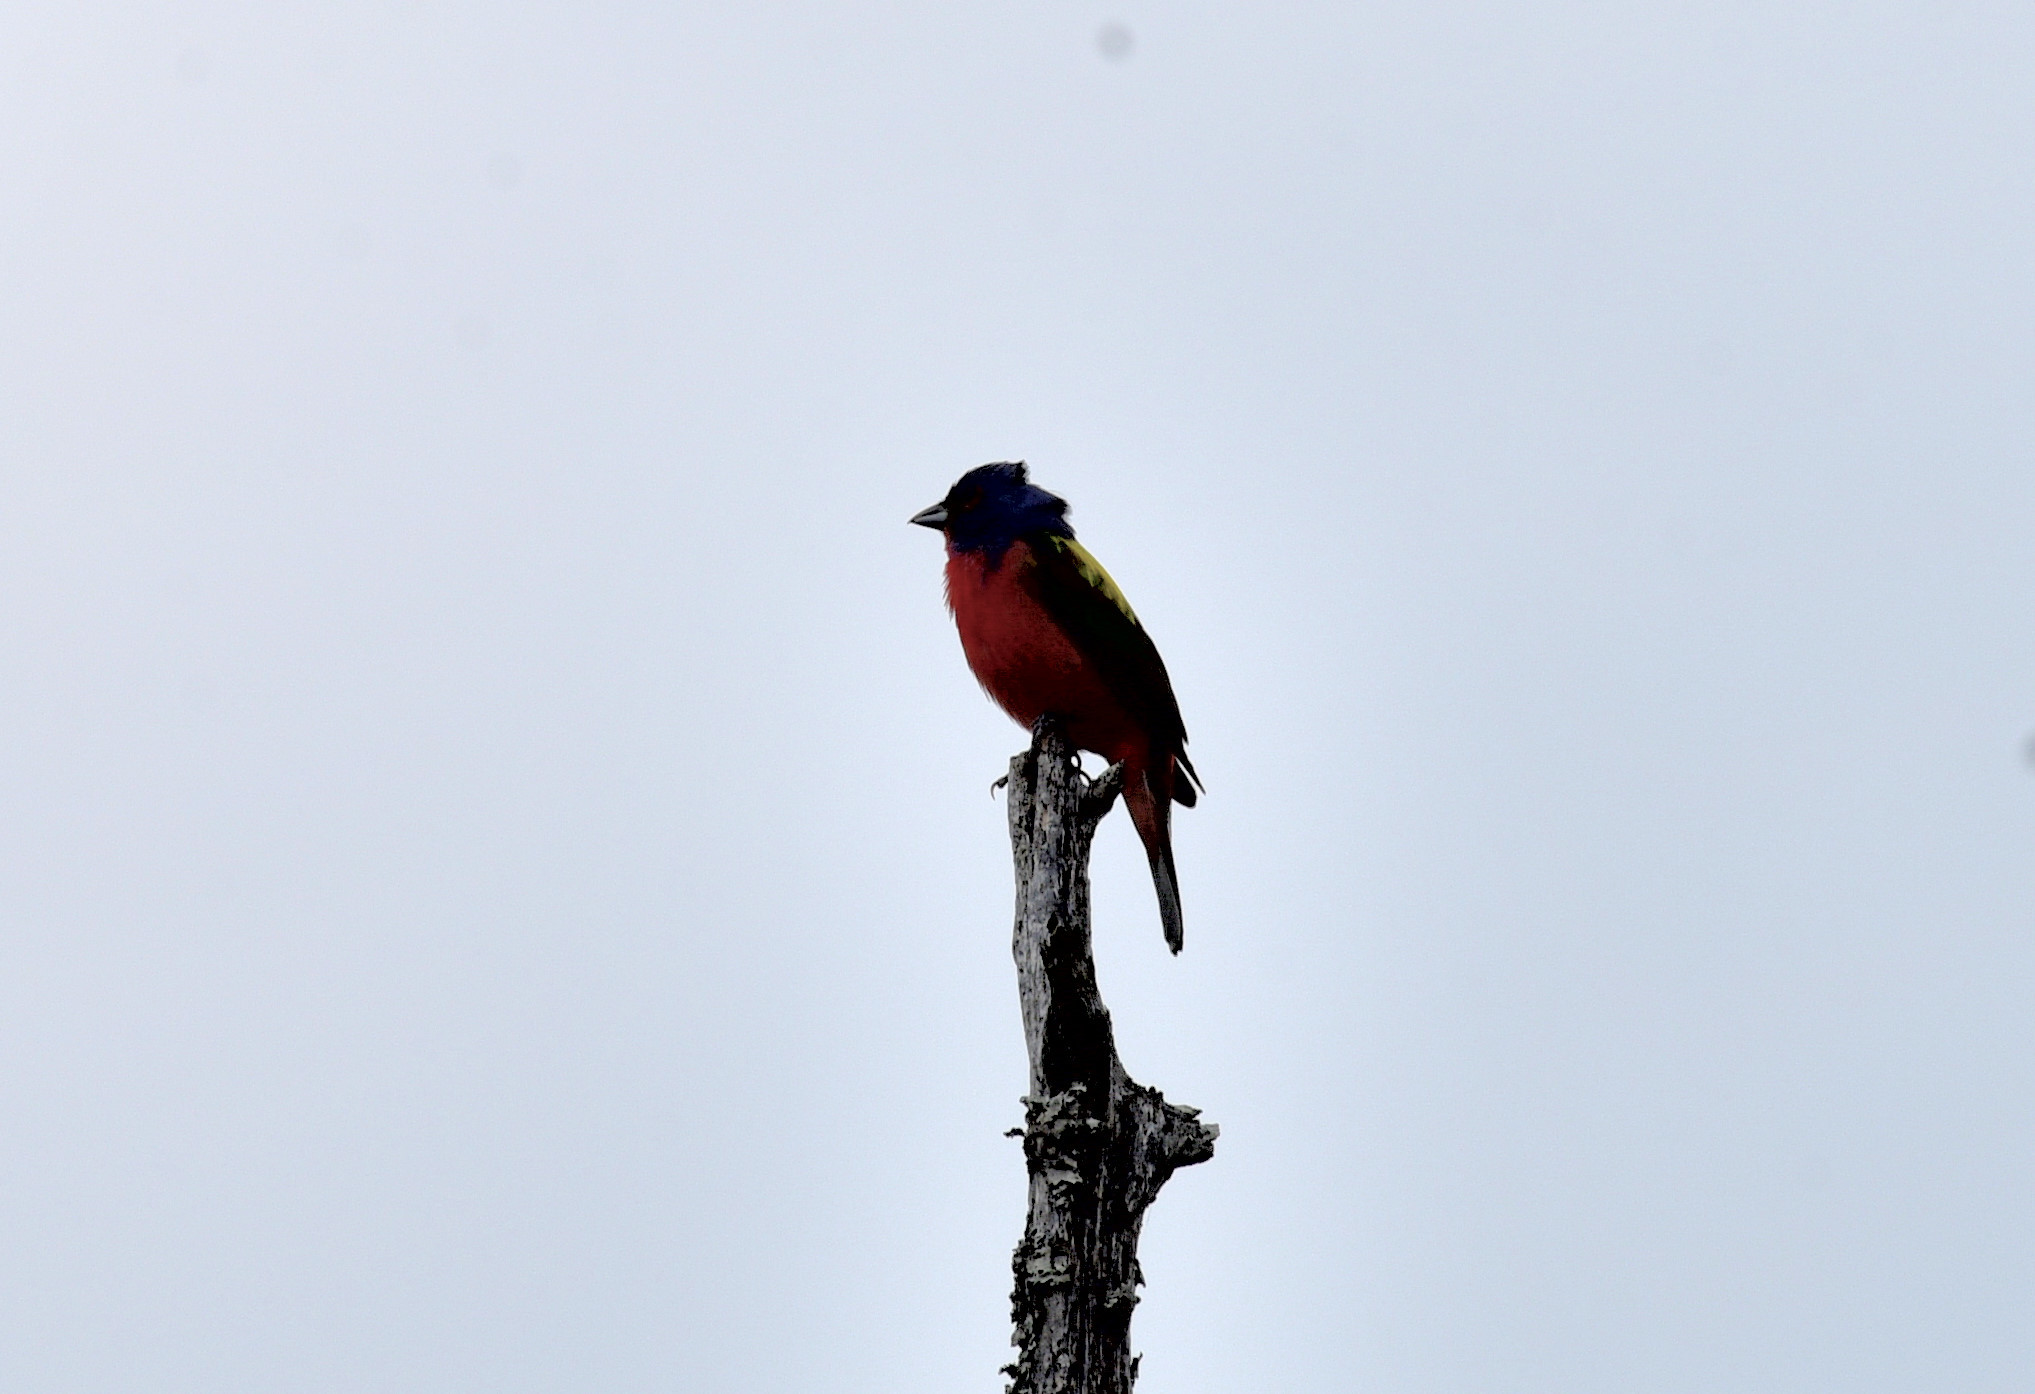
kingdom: Animalia
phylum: Chordata
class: Aves
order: Passeriformes
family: Cardinalidae
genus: Passerina
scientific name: Passerina ciris
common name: Painted bunting
